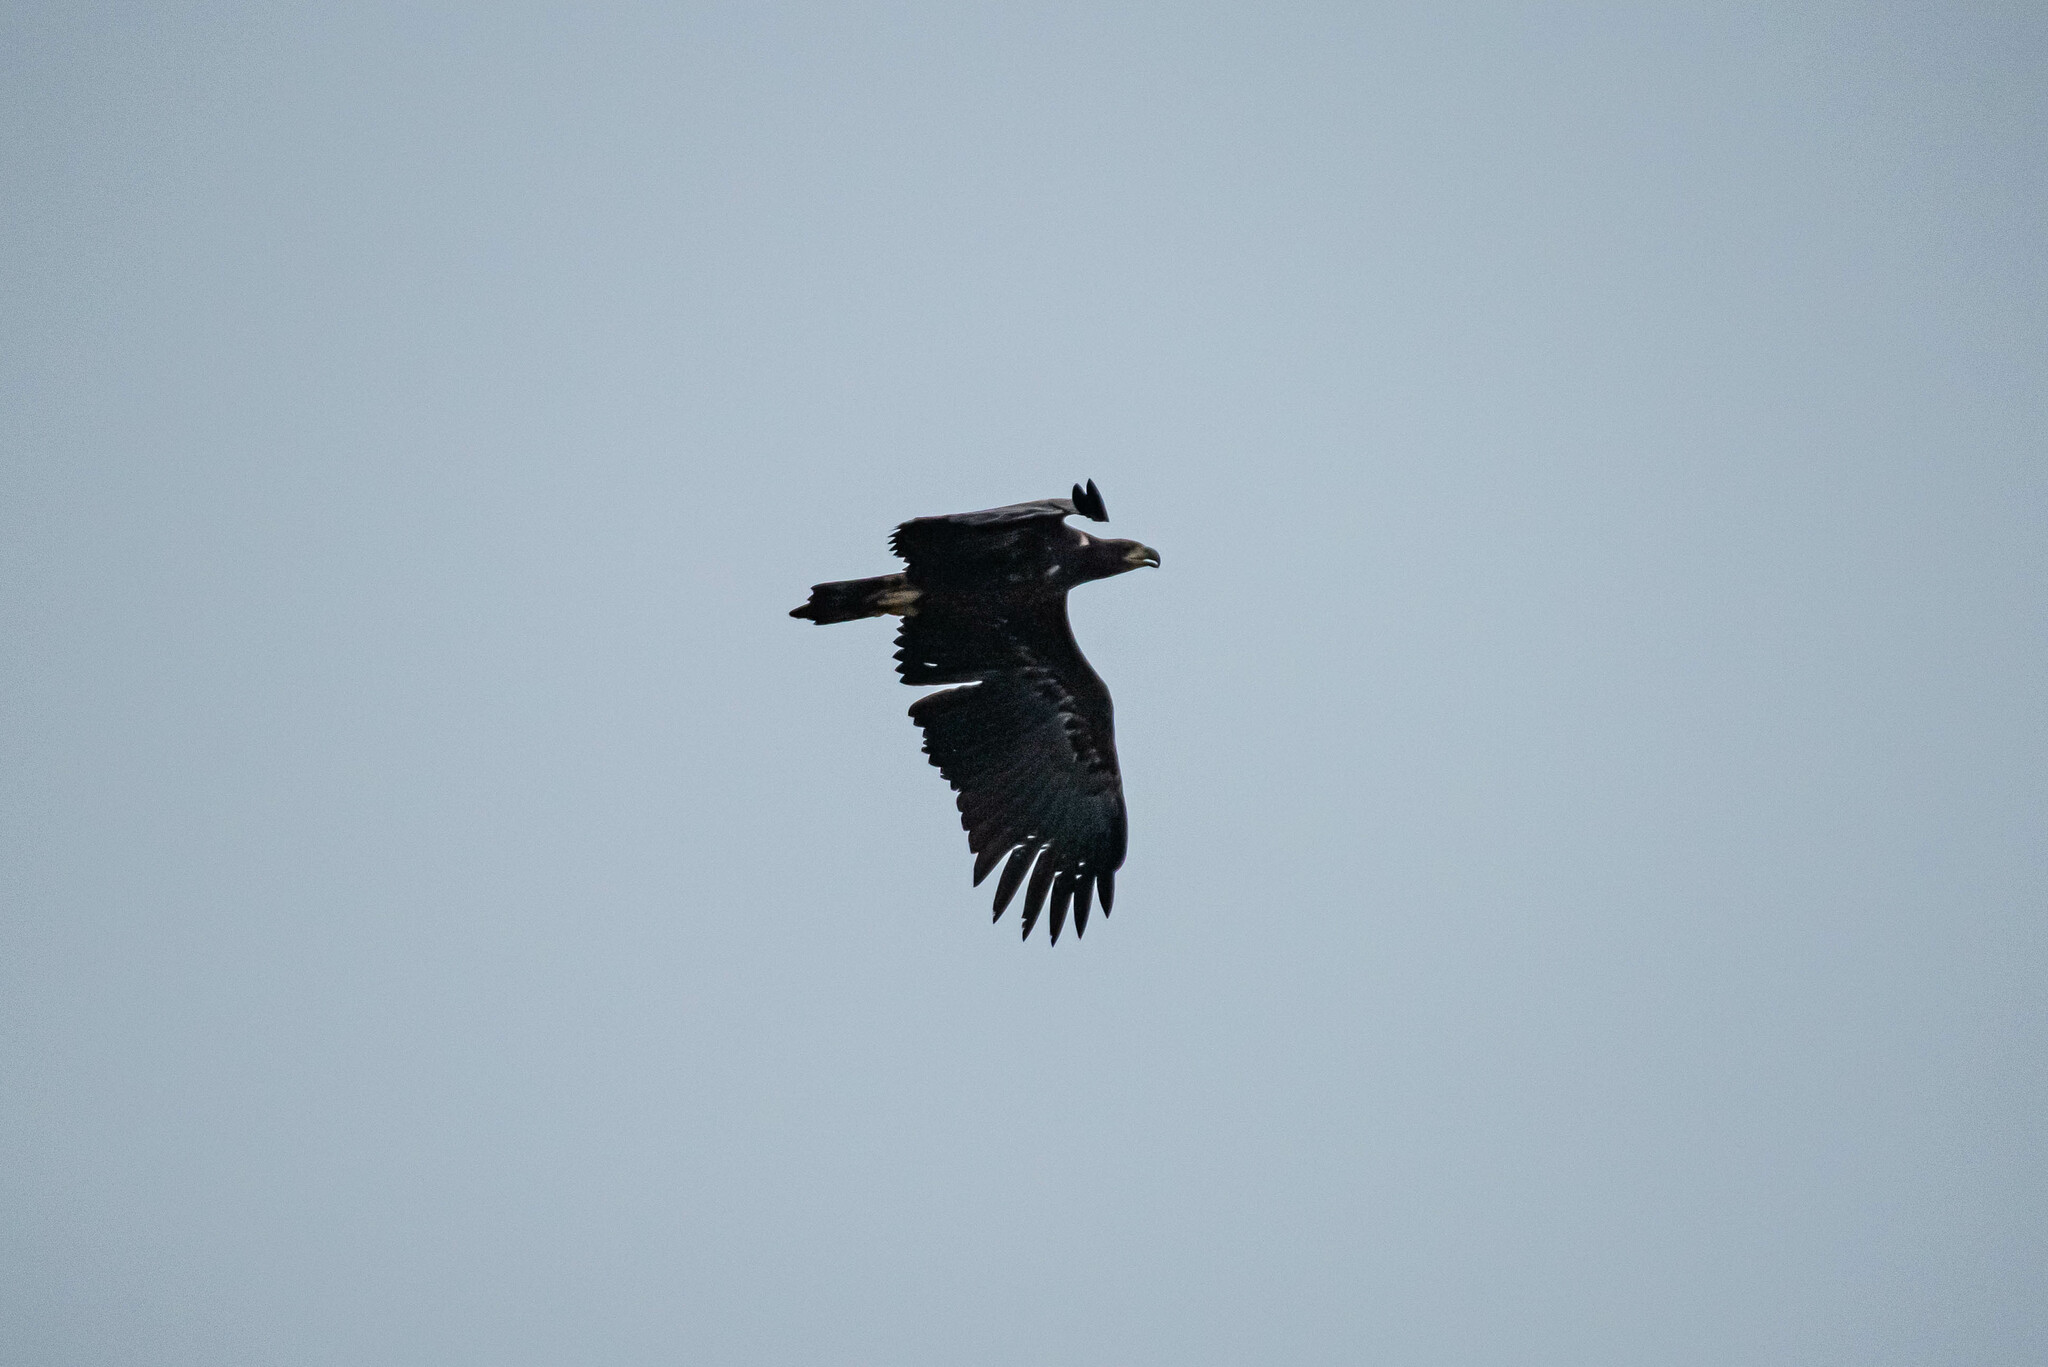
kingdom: Animalia
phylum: Chordata
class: Aves
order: Accipitriformes
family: Accipitridae
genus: Haliaeetus
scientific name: Haliaeetus albicilla
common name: White-tailed eagle
